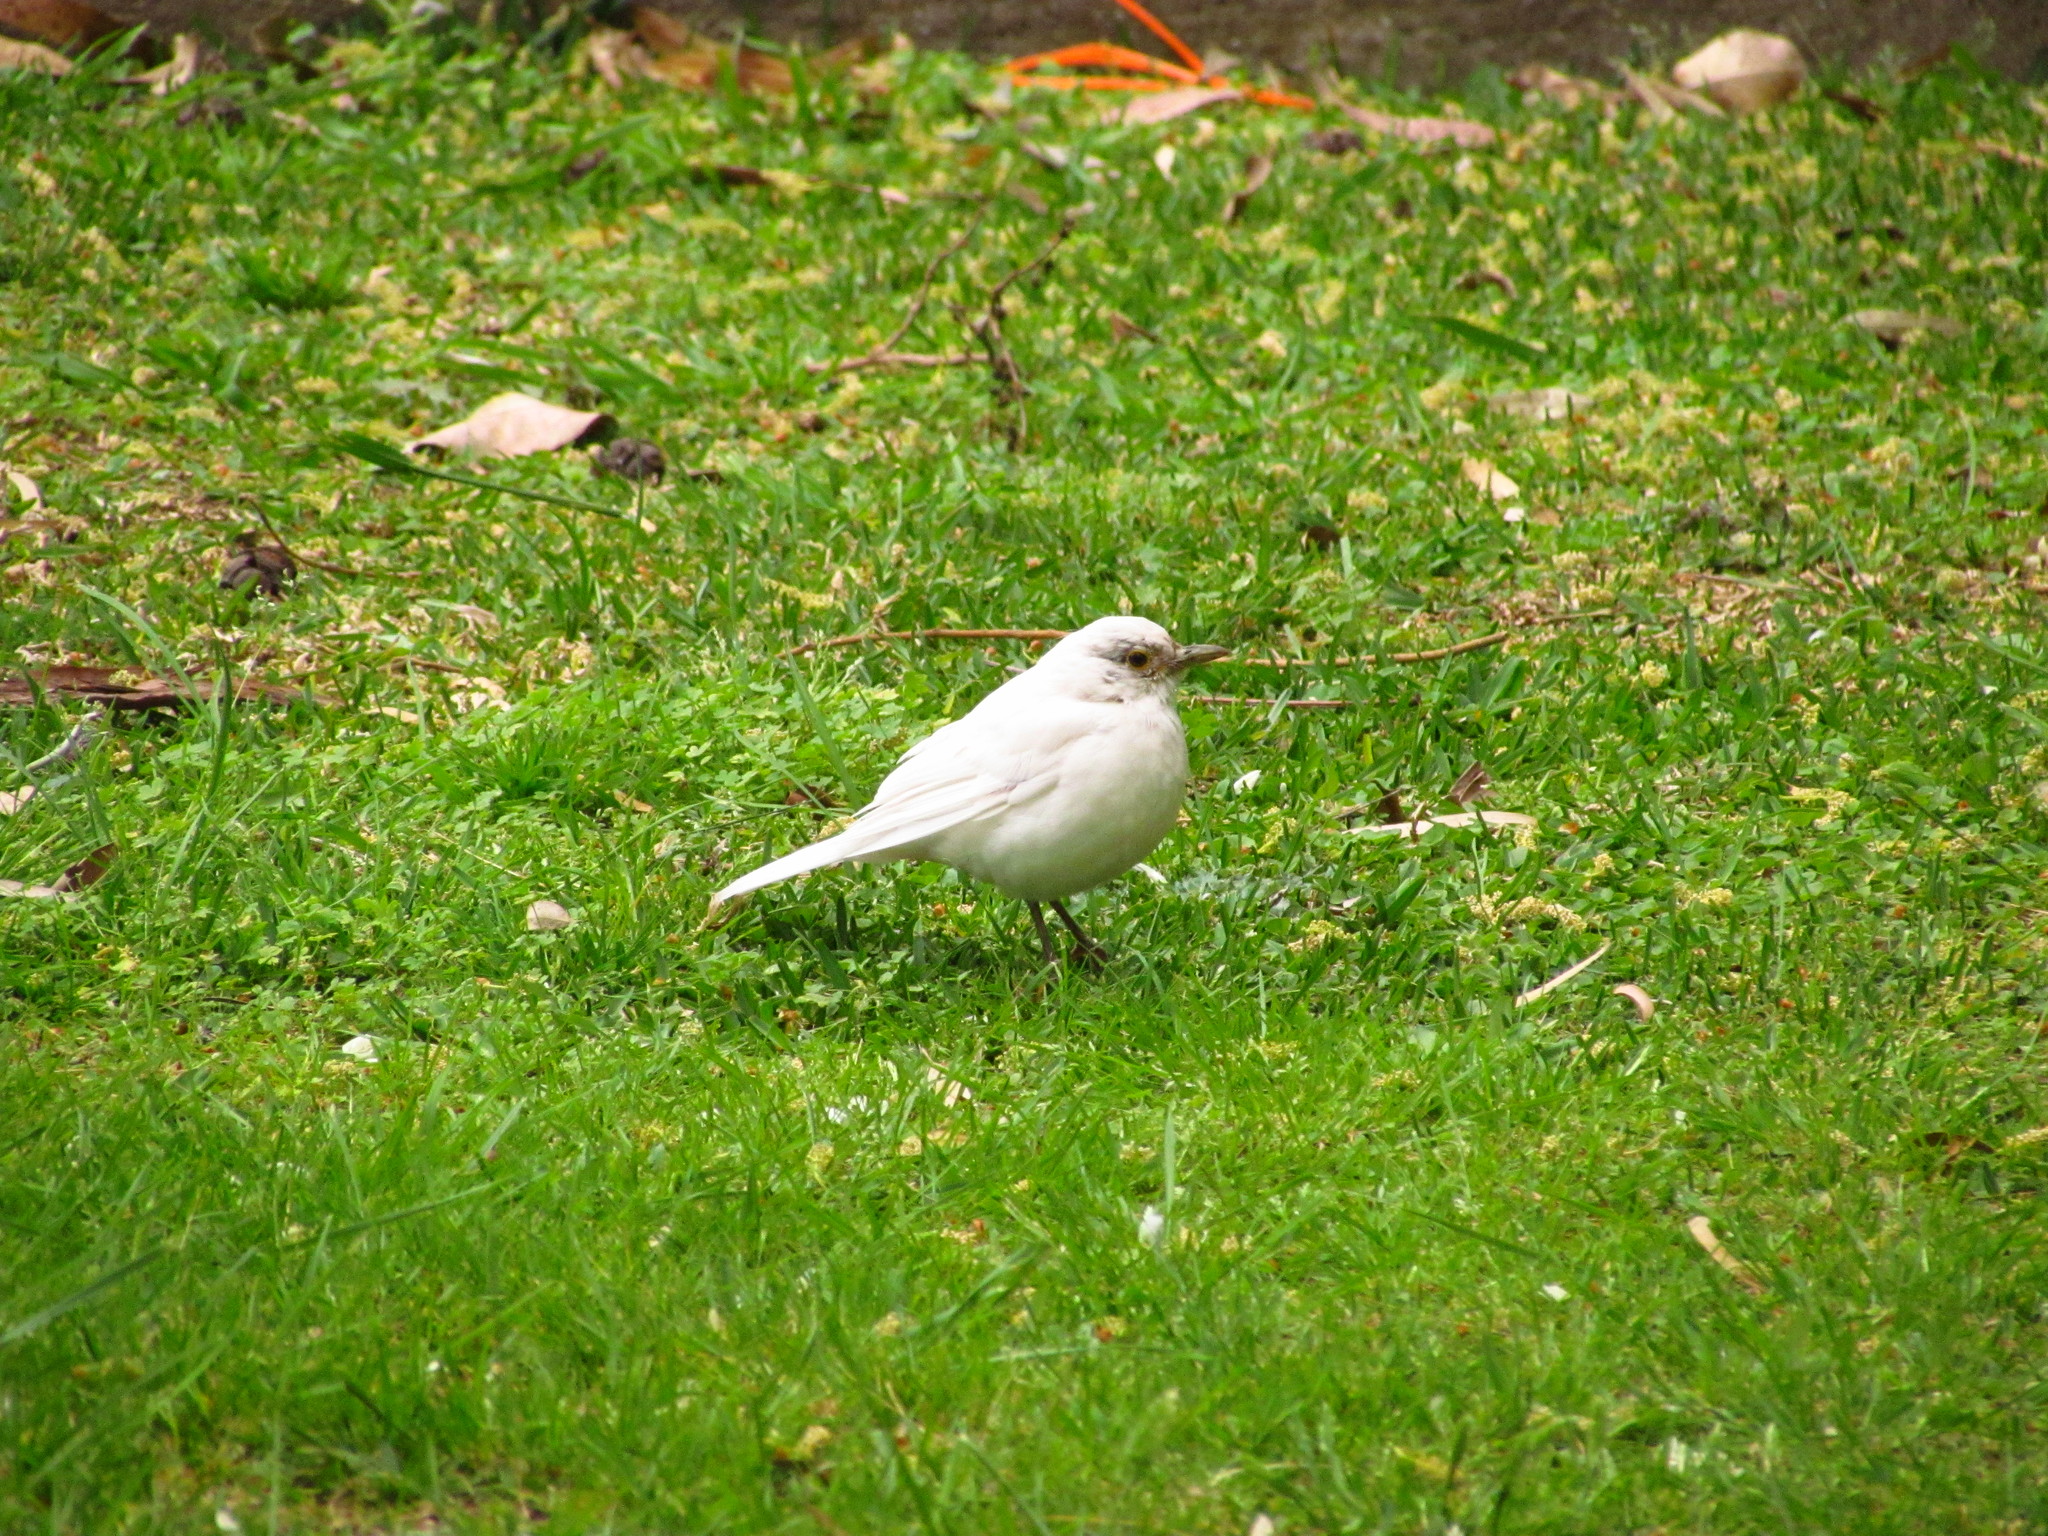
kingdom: Animalia
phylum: Chordata
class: Aves
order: Passeriformes
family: Turdidae
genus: Turdus
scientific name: Turdus rufiventris
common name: Rufous-bellied thrush
